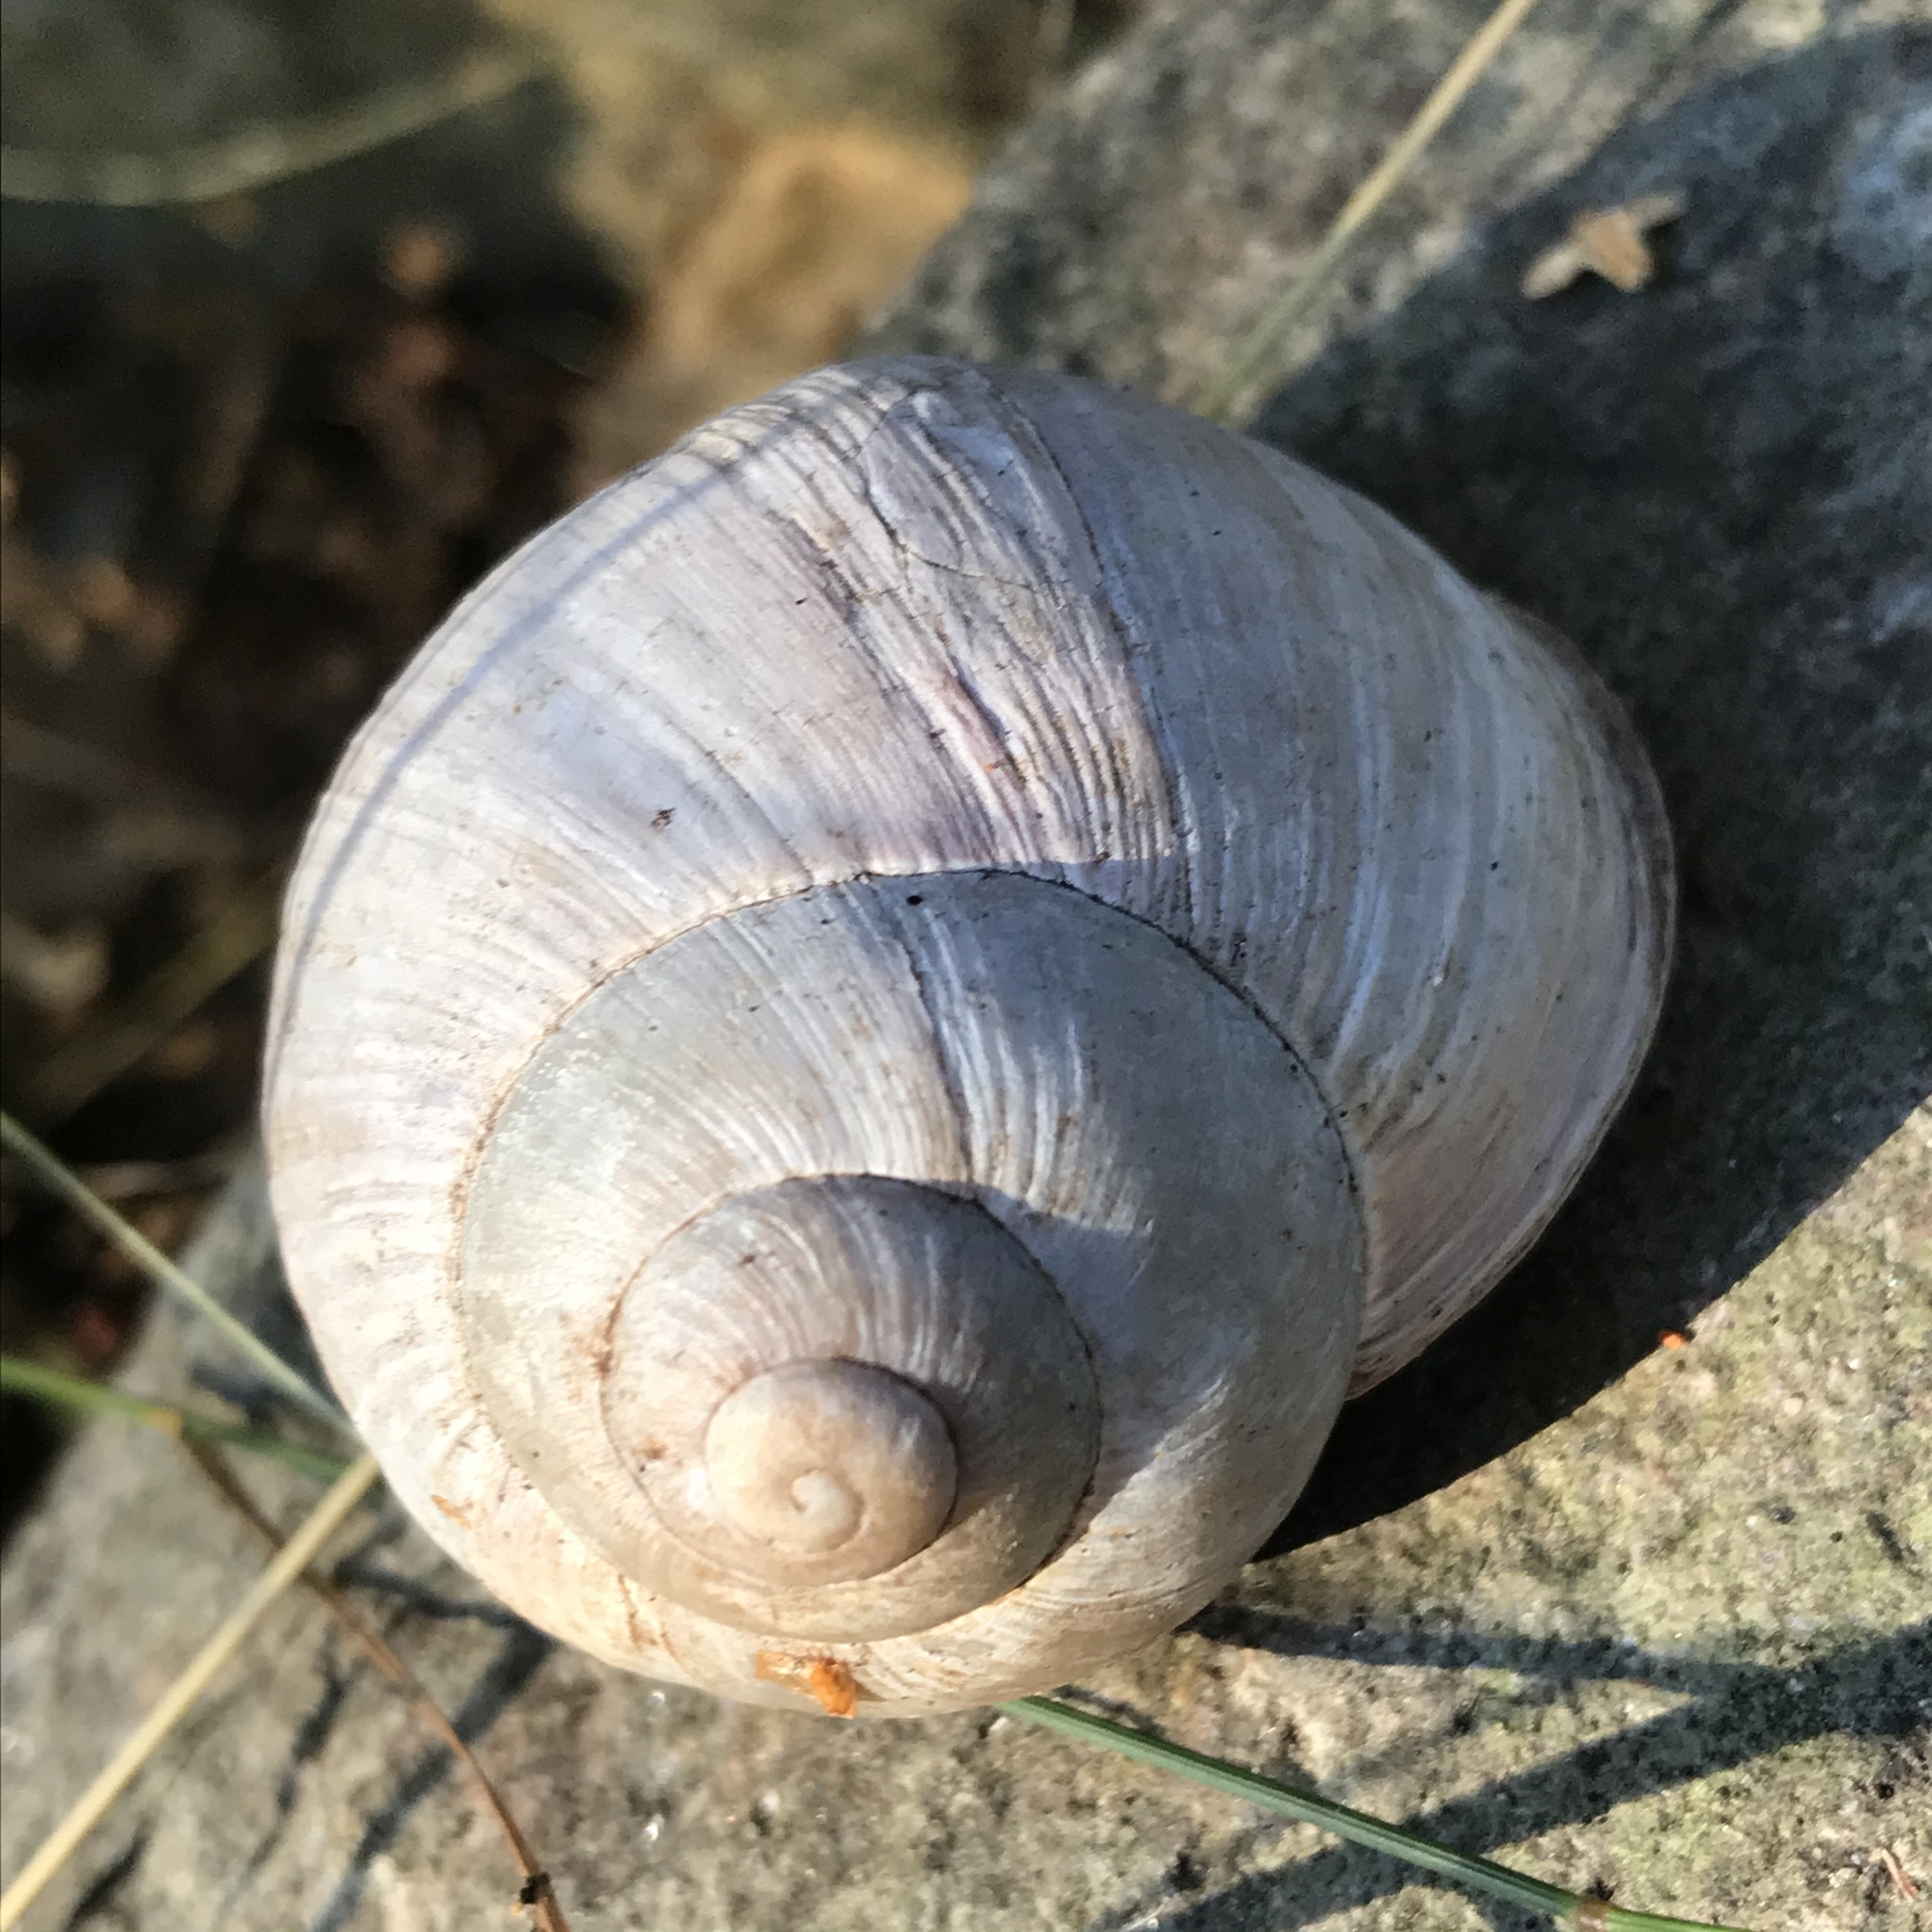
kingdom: Animalia
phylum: Mollusca
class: Gastropoda
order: Stylommatophora
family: Helicidae
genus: Helix
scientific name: Helix pomatia
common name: Roman snail
